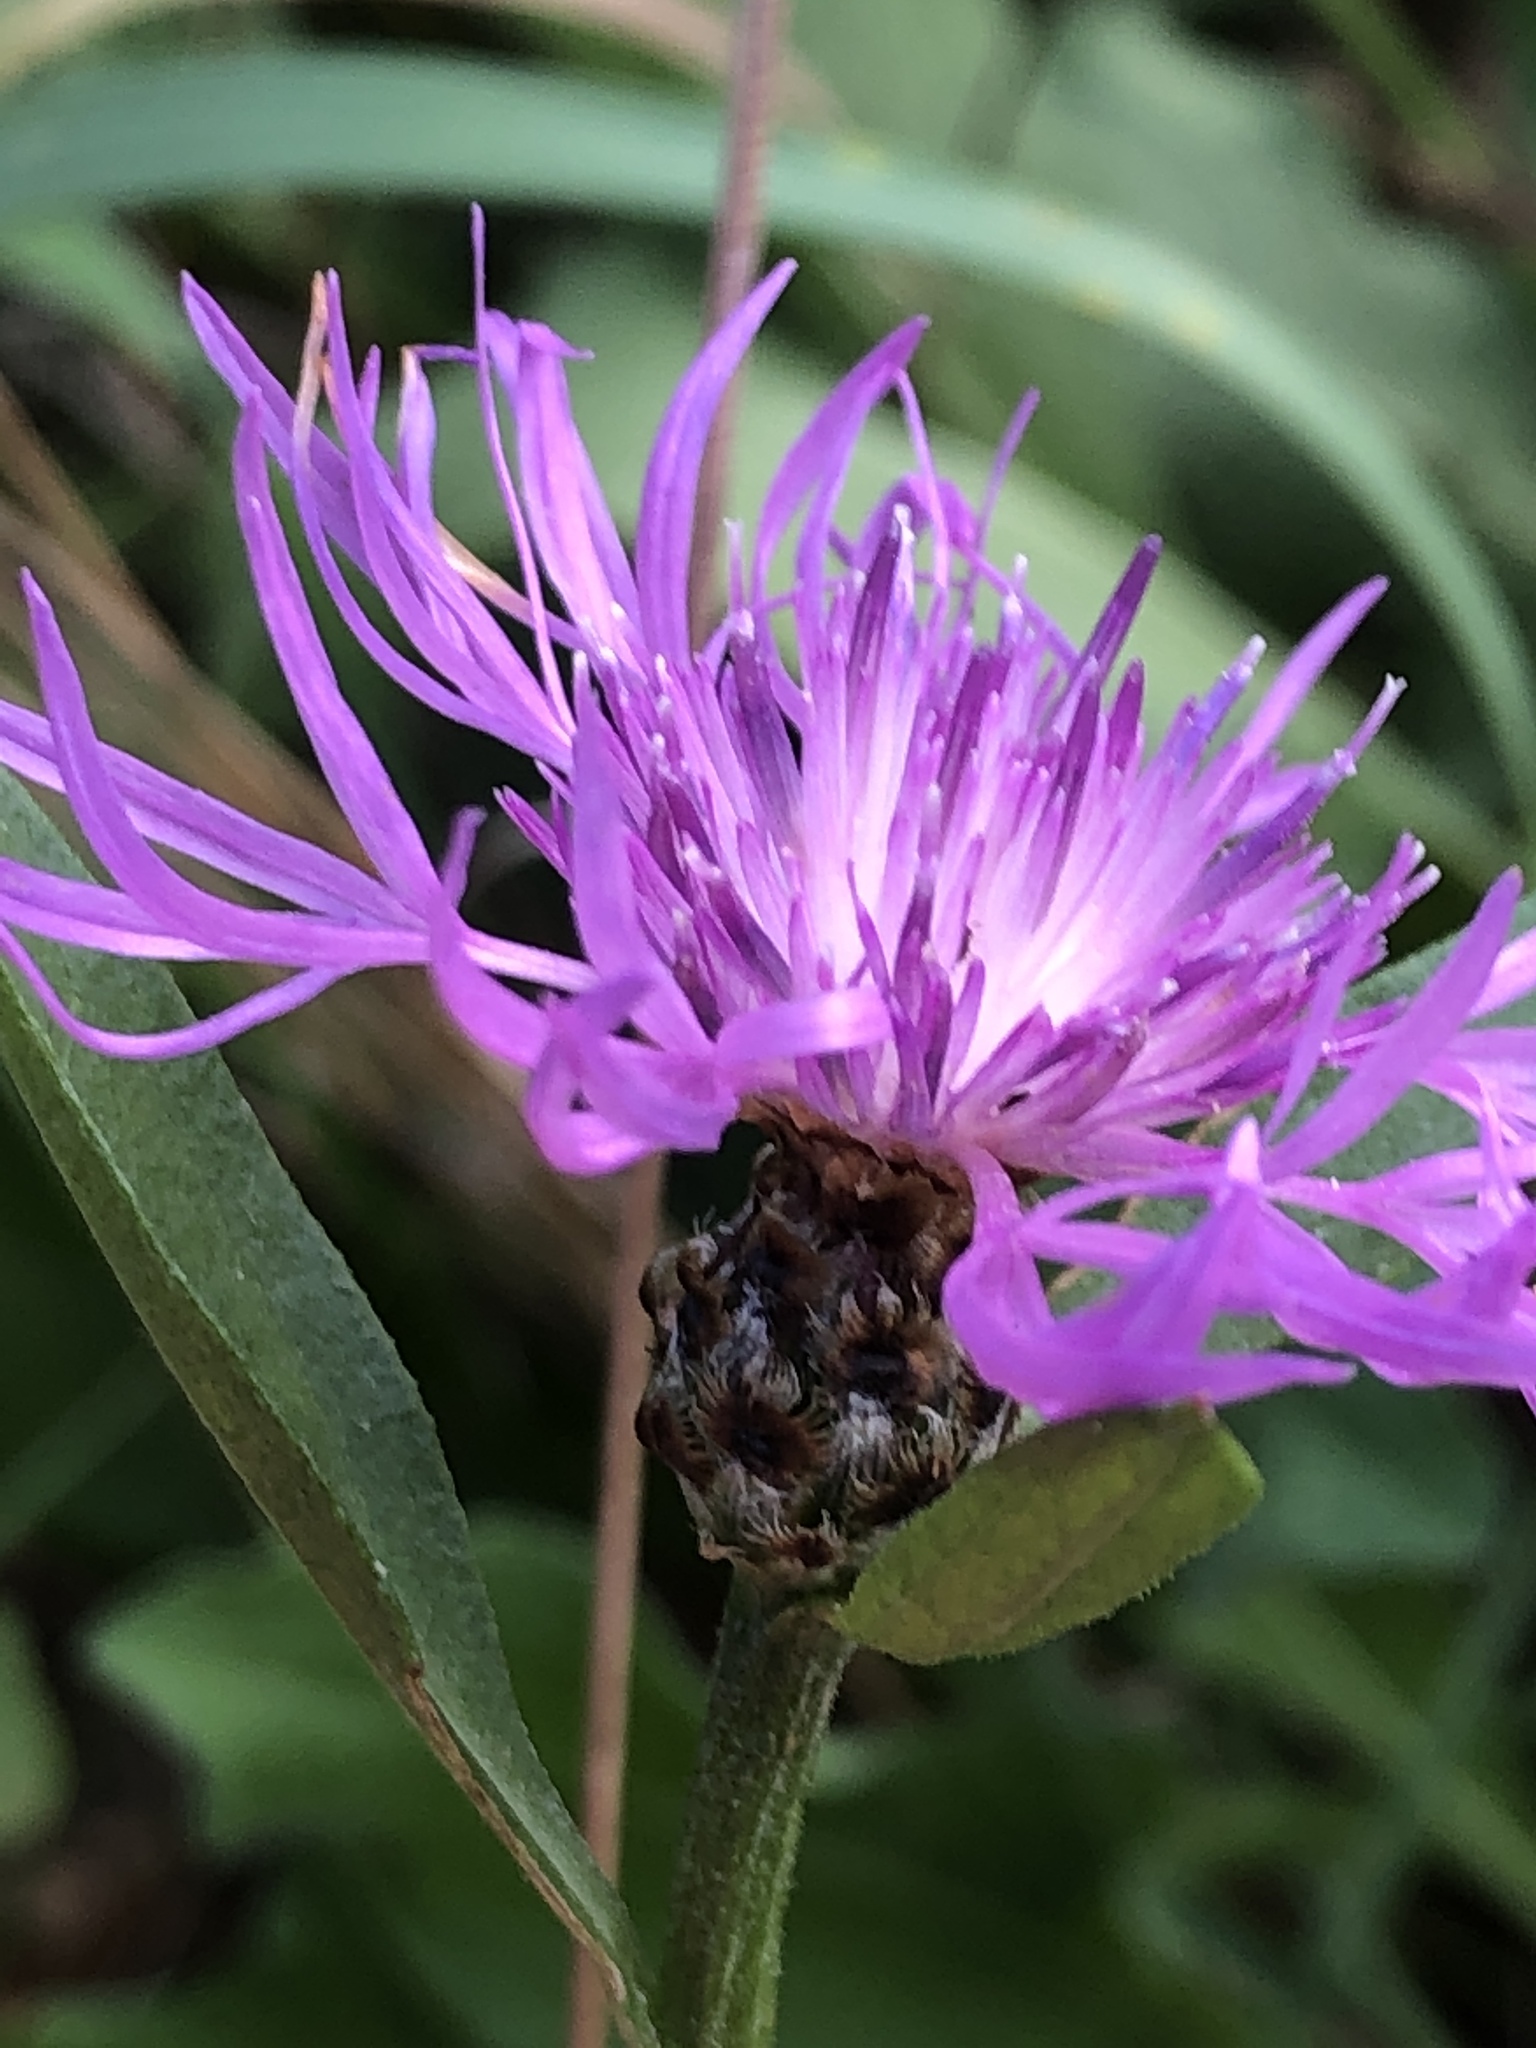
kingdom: Plantae
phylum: Tracheophyta
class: Magnoliopsida
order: Asterales
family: Asteraceae
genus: Centaurea
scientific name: Centaurea jacea
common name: Brown knapweed
